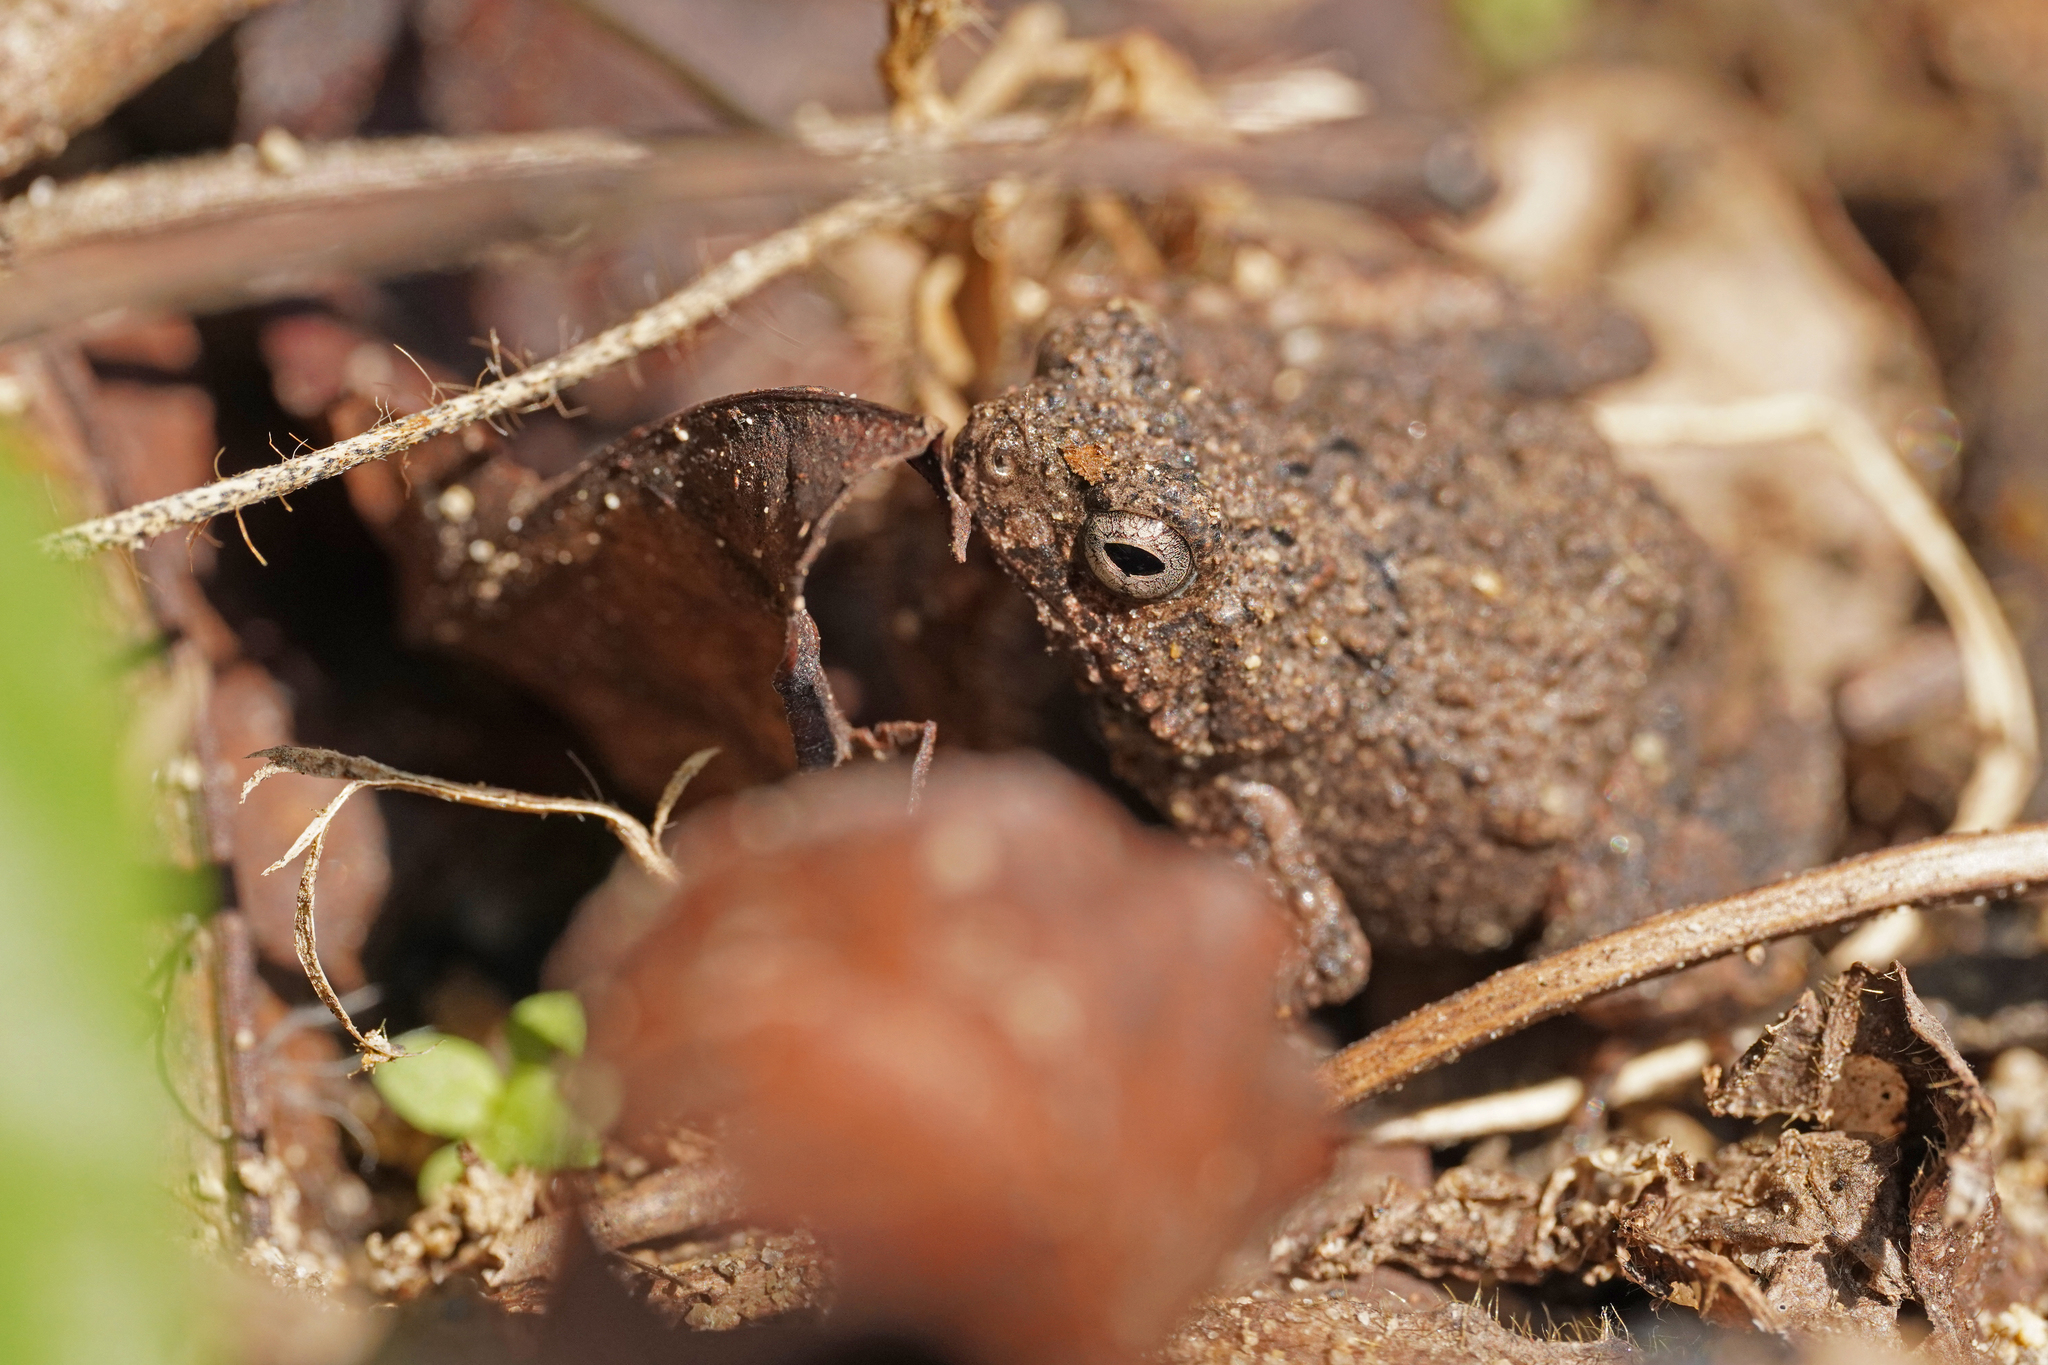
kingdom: Animalia
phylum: Chordata
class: Amphibia
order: Anura
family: Leptodactylidae
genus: Engystomops
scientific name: Engystomops pustulosus
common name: Tungara frog
